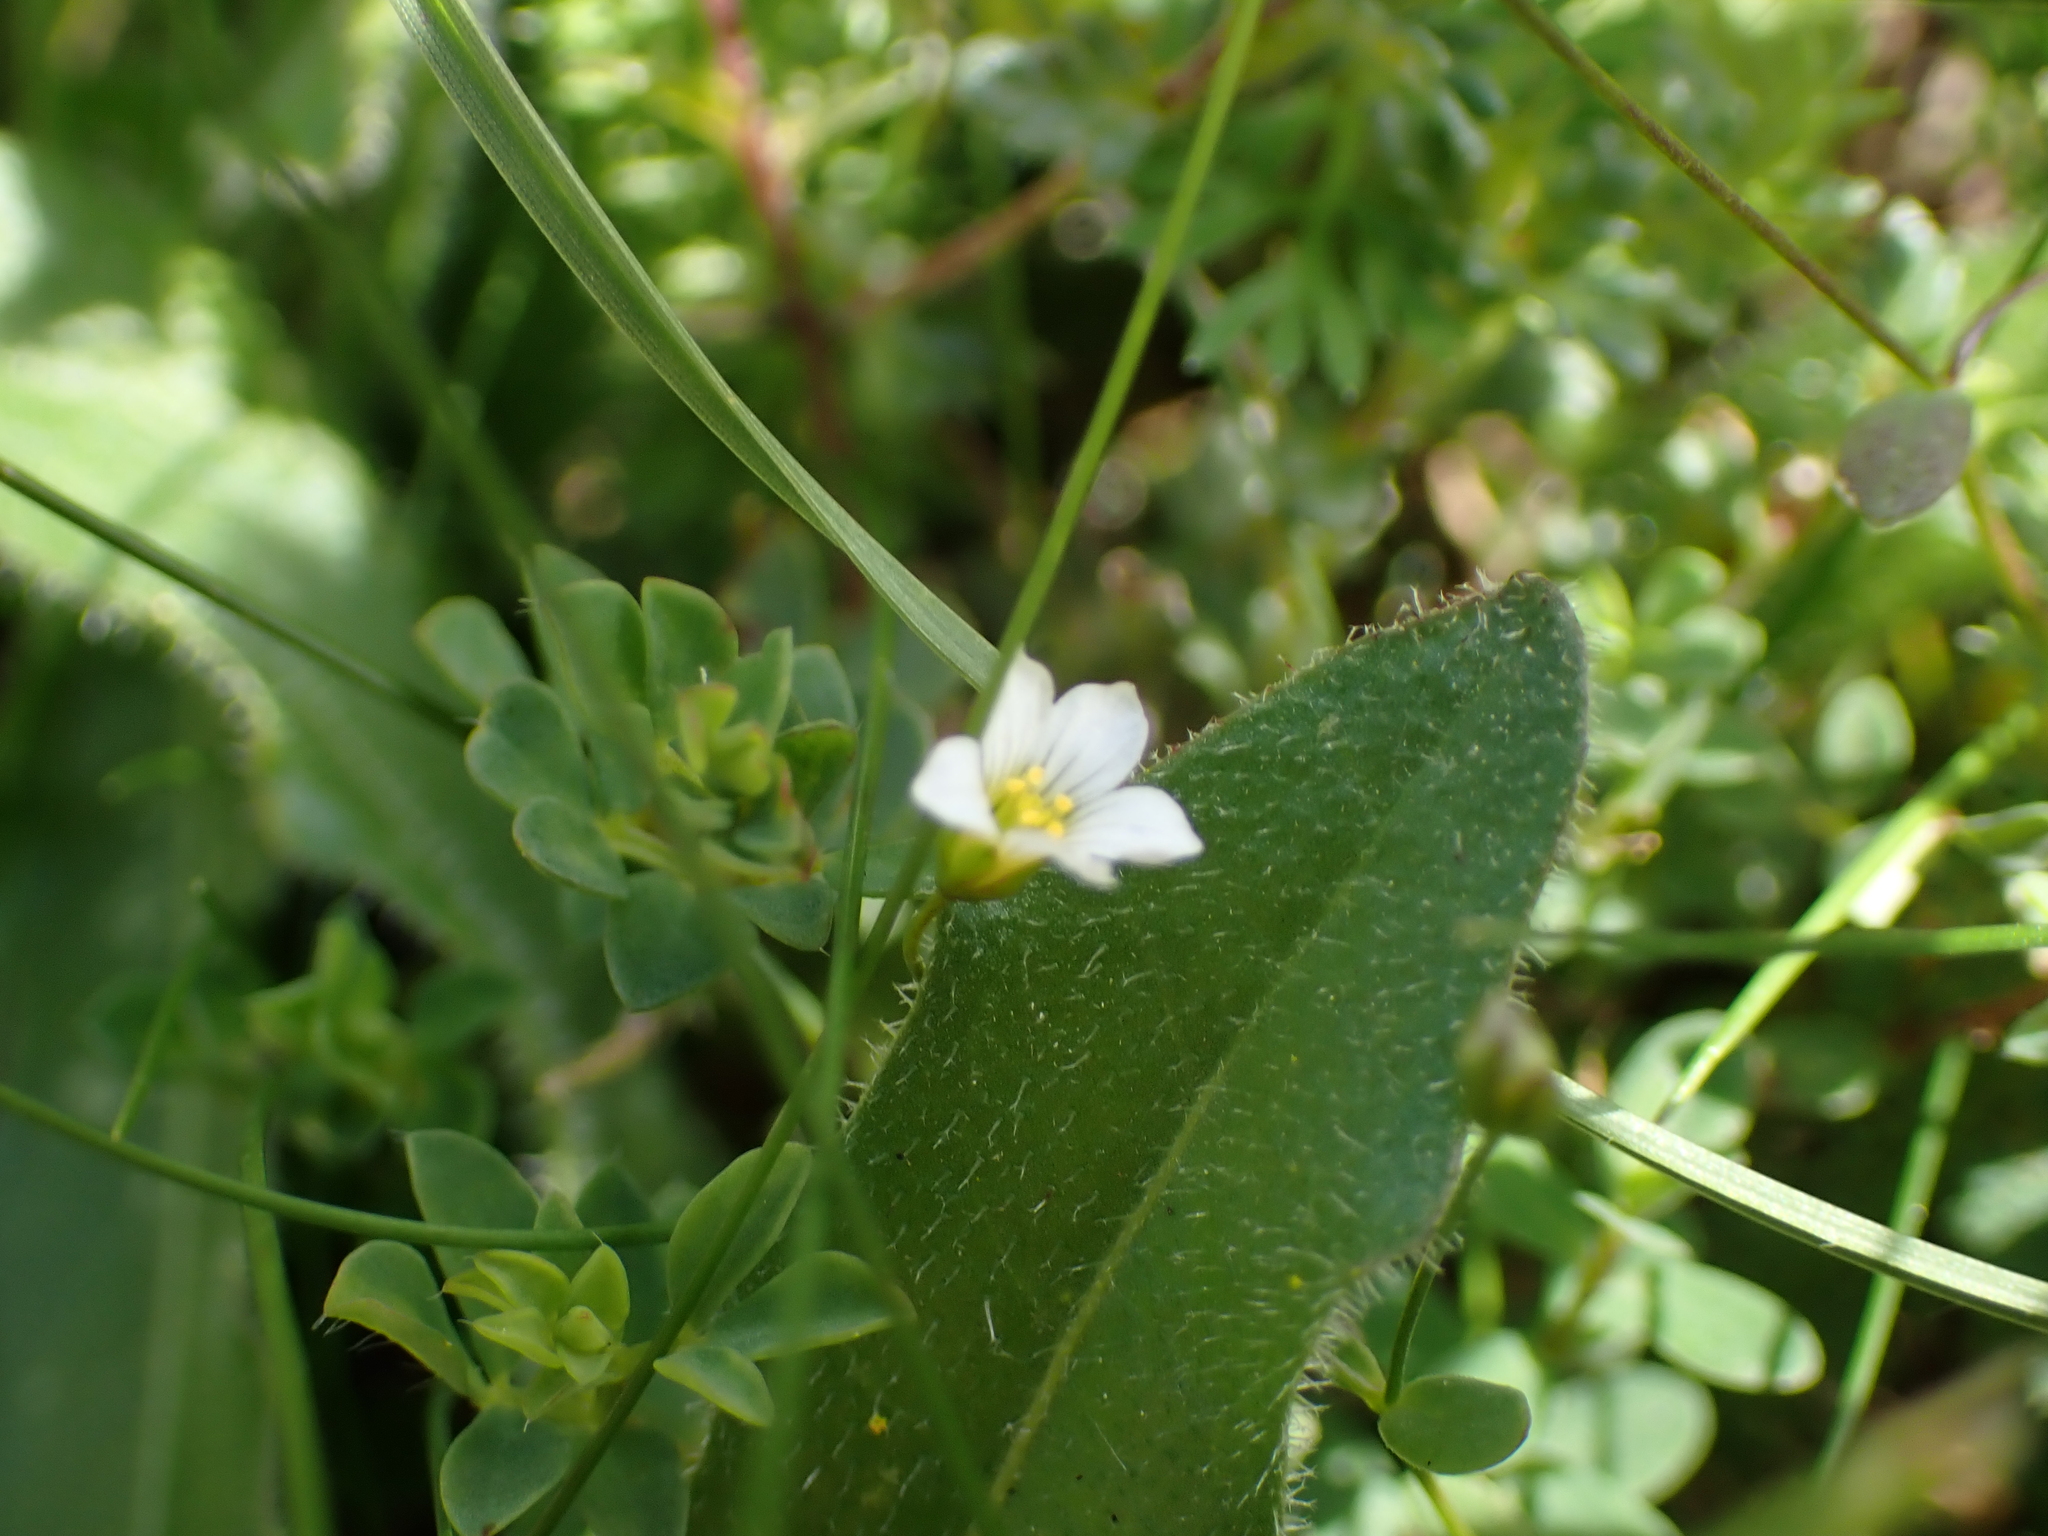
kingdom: Plantae
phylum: Tracheophyta
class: Magnoliopsida
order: Malpighiales
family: Linaceae
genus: Linum
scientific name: Linum catharticum
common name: Fairy flax
